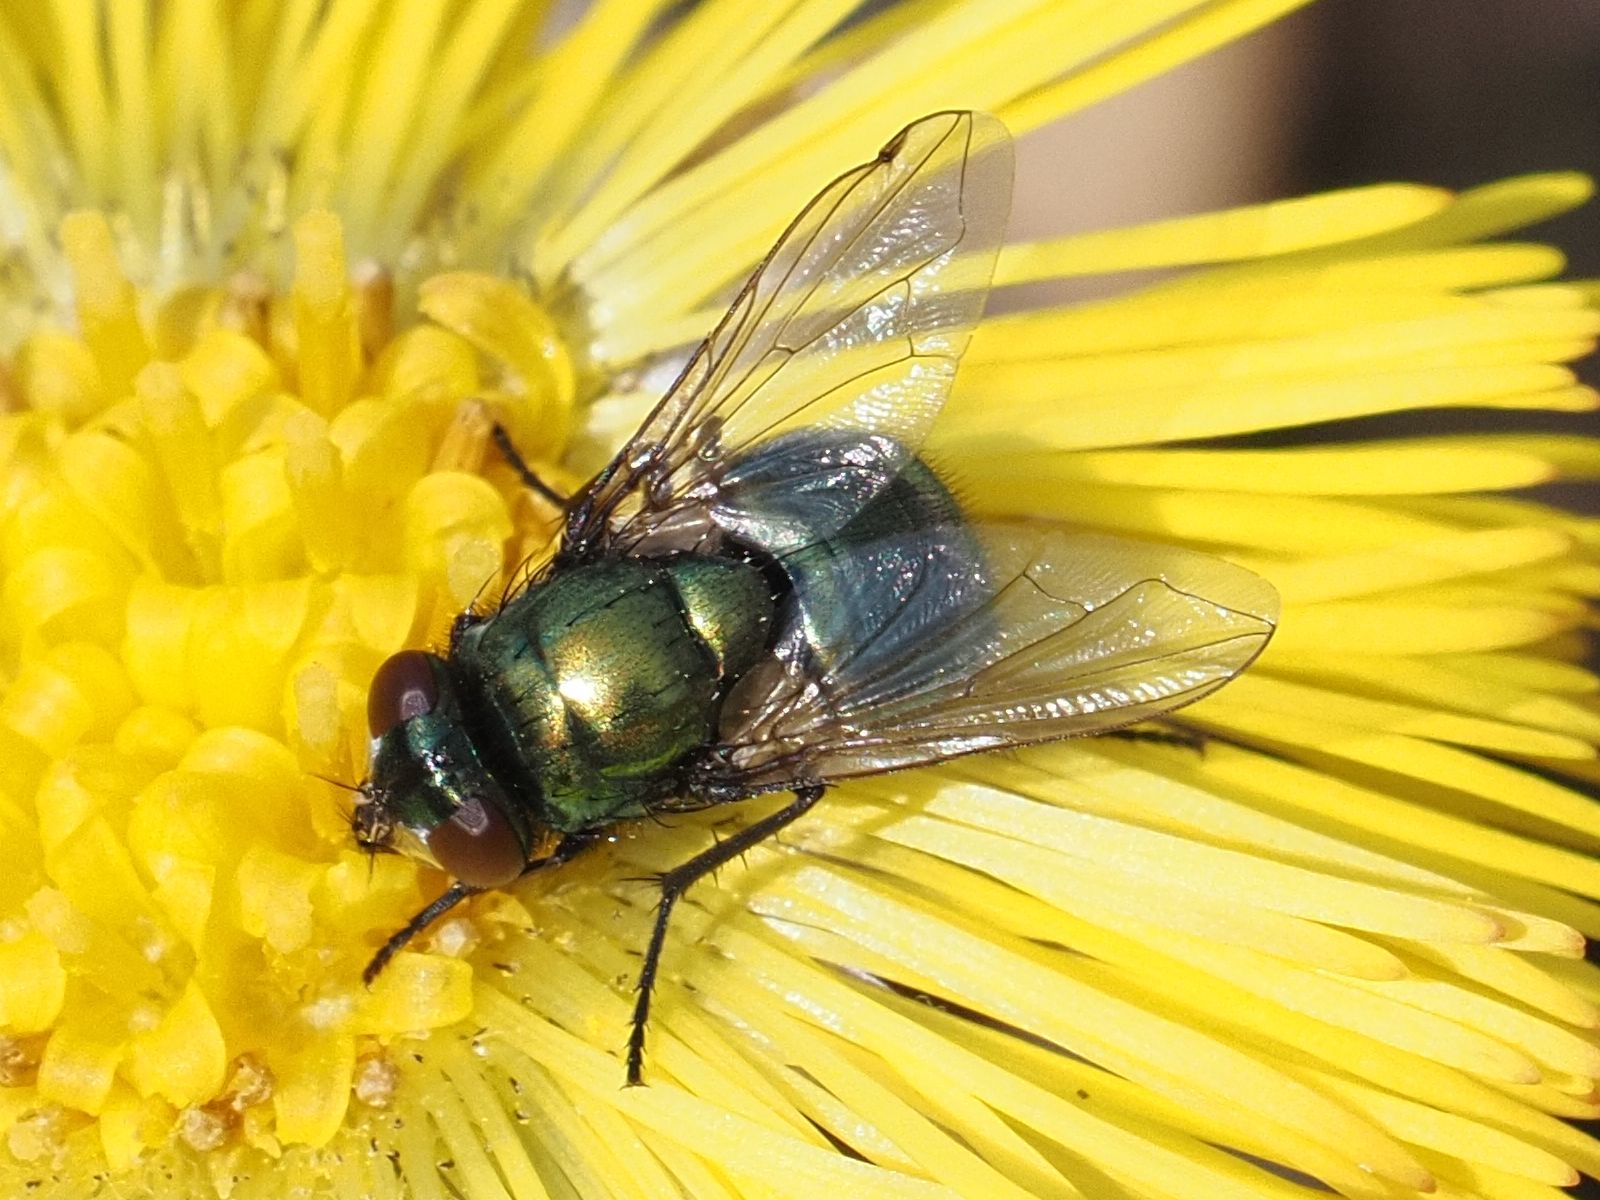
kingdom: Animalia
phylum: Arthropoda
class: Insecta
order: Diptera
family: Muscidae
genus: Neomyia
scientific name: Neomyia cornicina
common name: House fly
